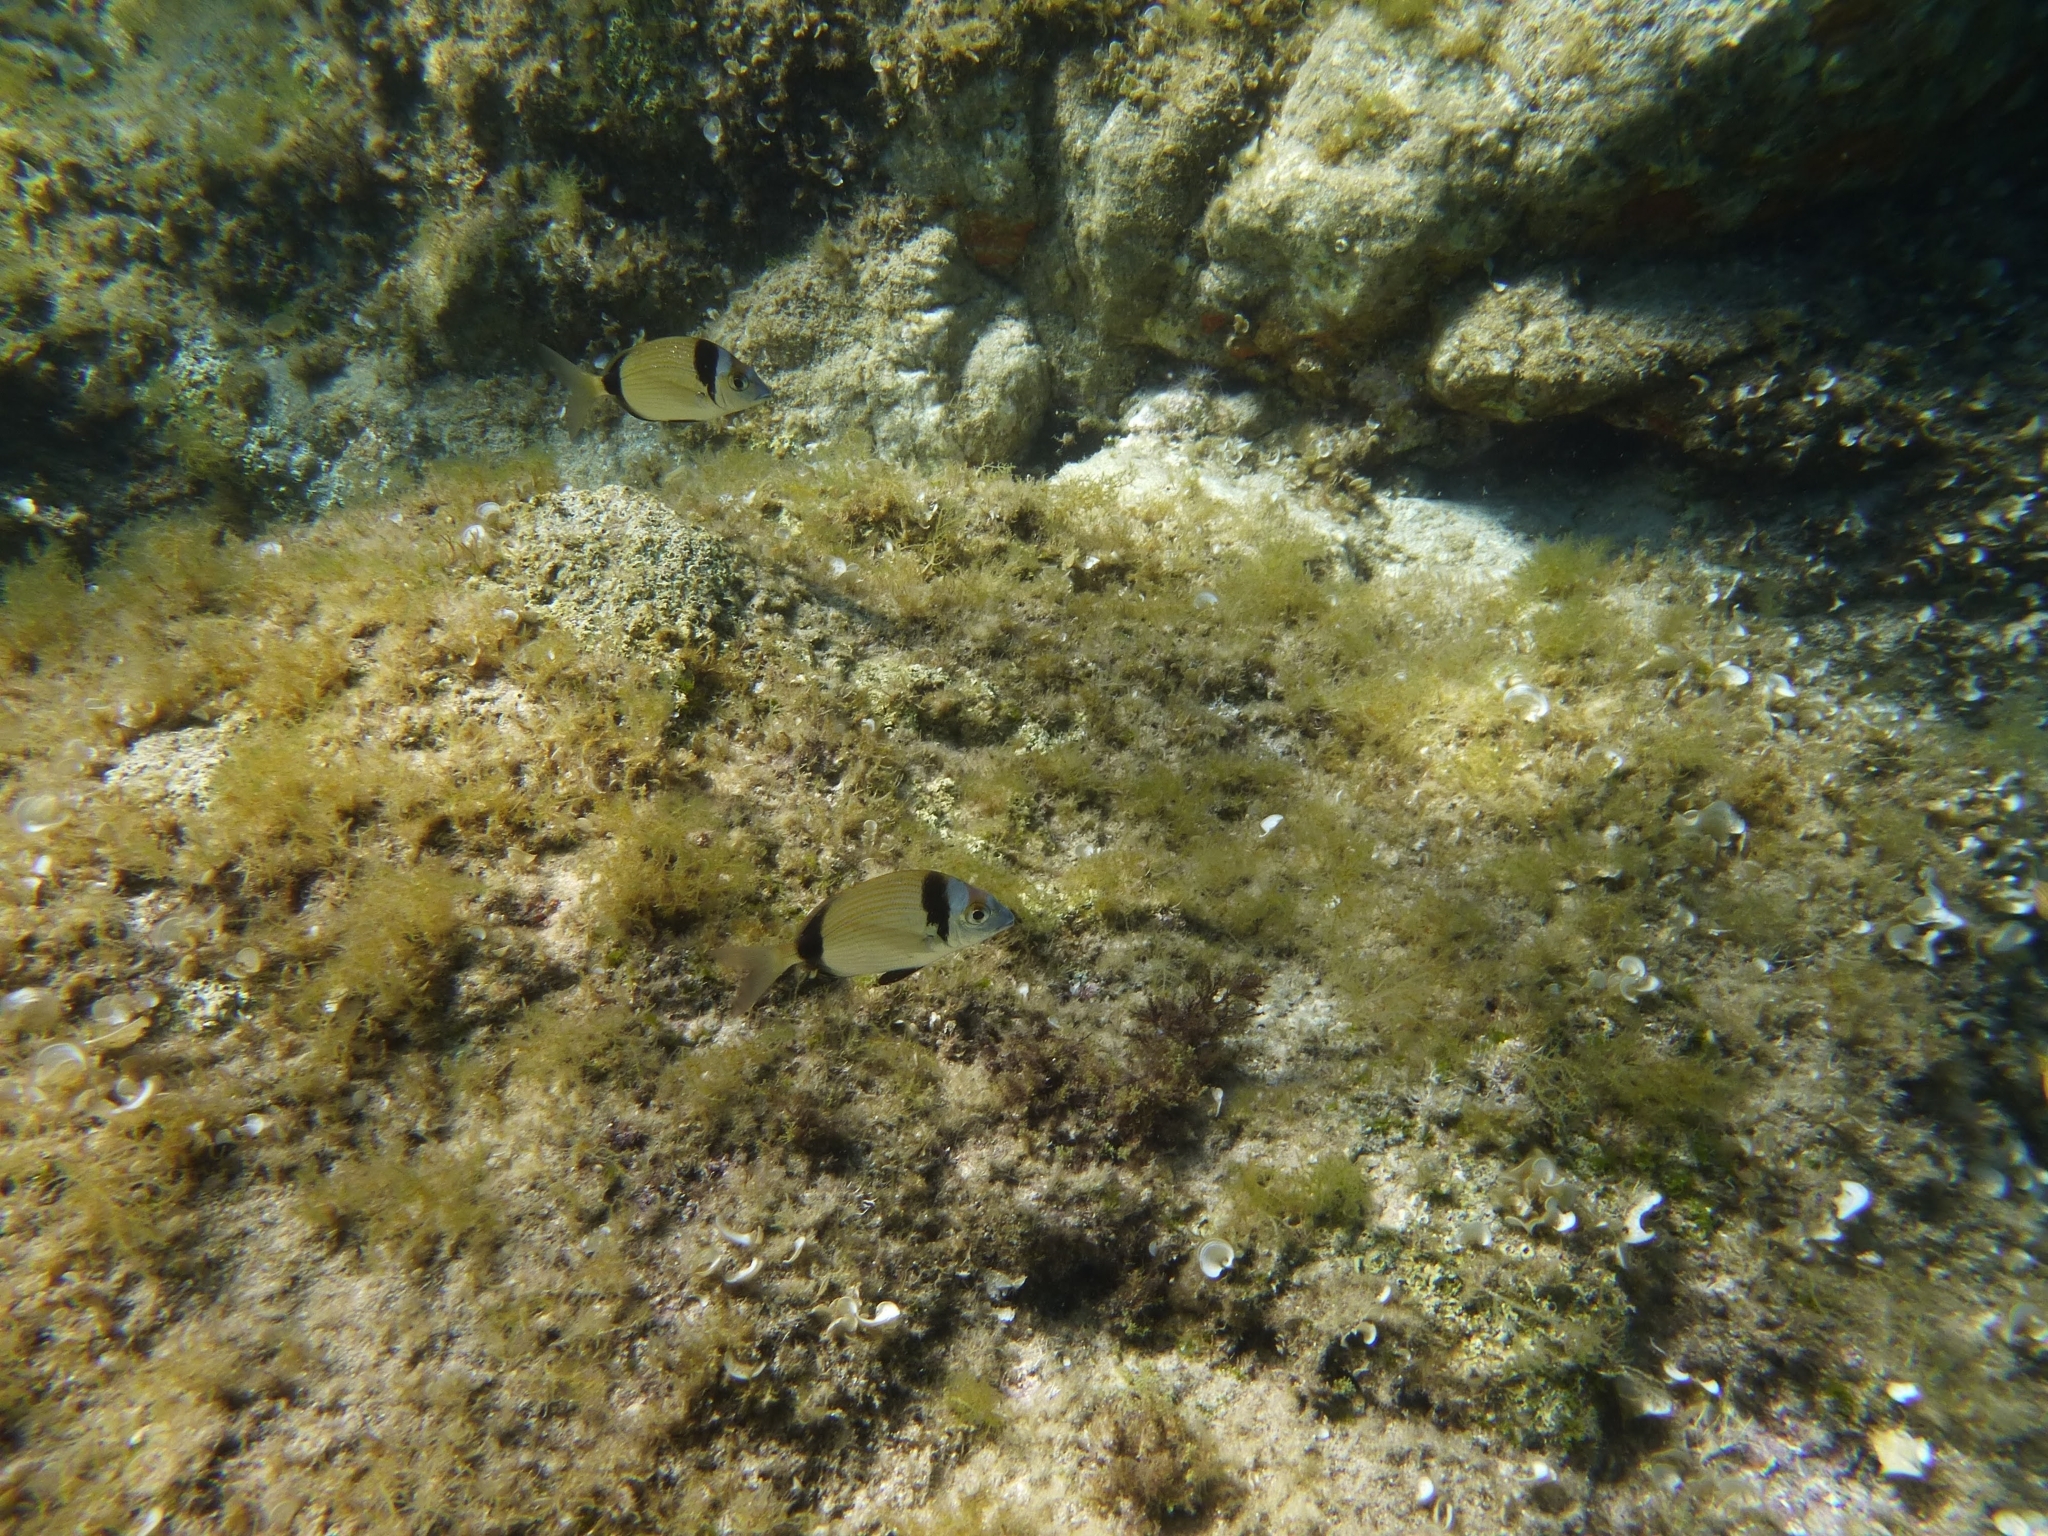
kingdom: Animalia
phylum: Chordata
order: Perciformes
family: Sparidae
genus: Diplodus
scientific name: Diplodus vulgaris
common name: Common two-banded seabream
